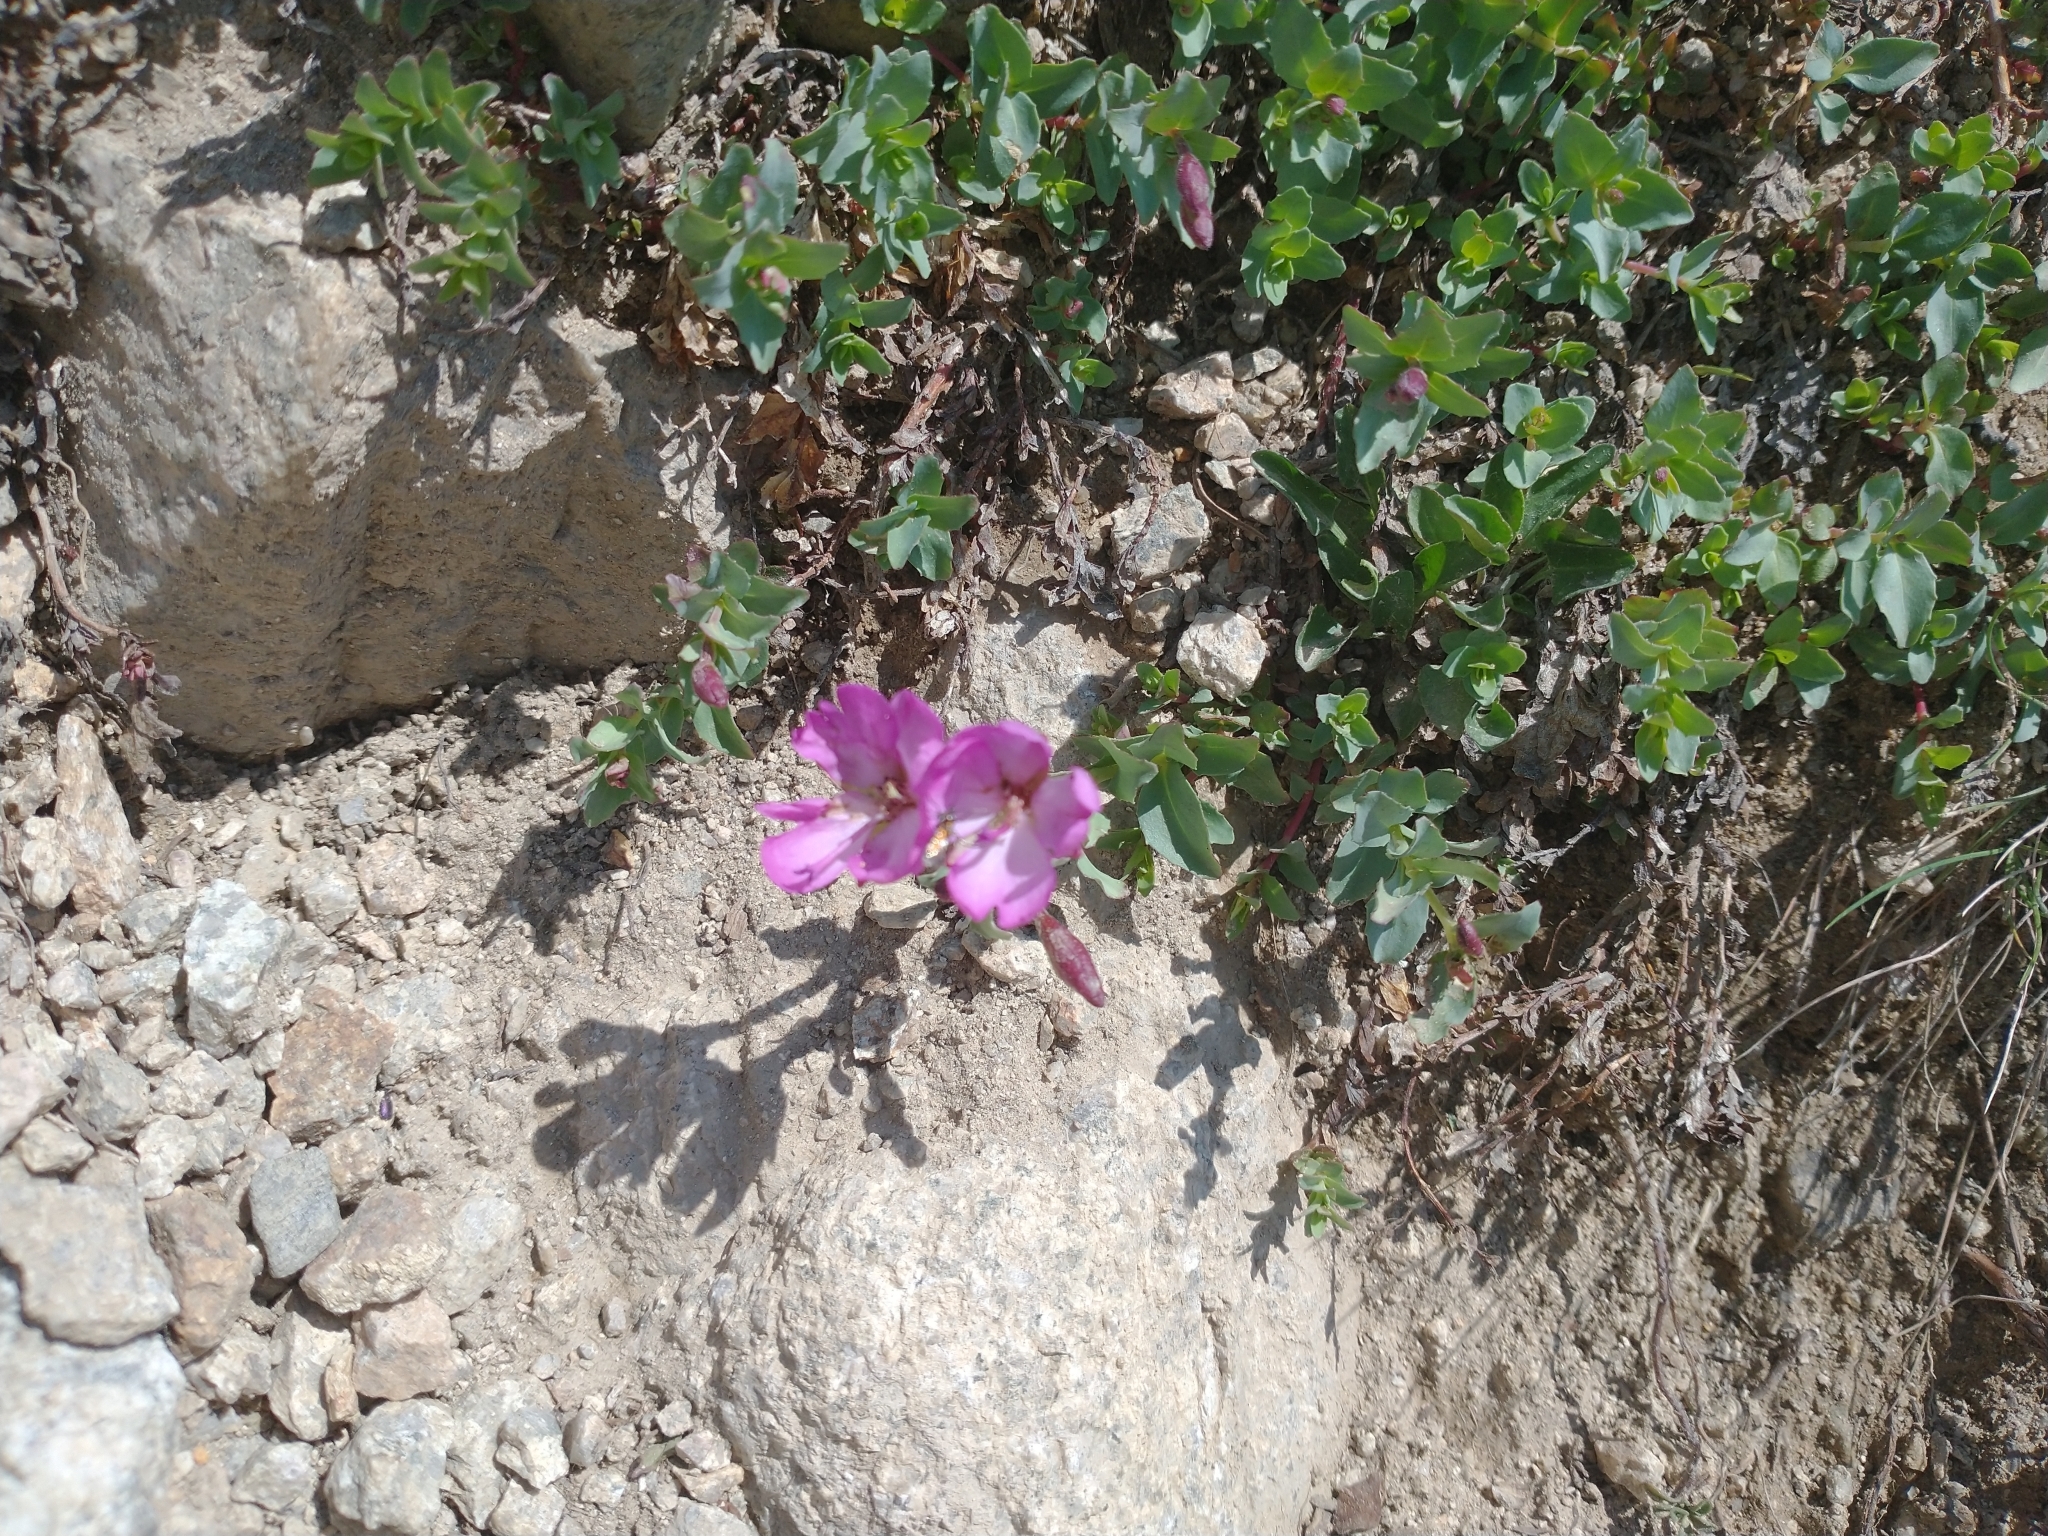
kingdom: Plantae
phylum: Tracheophyta
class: Magnoliopsida
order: Myrtales
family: Onagraceae
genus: Epilobium
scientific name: Epilobium obcordatum
